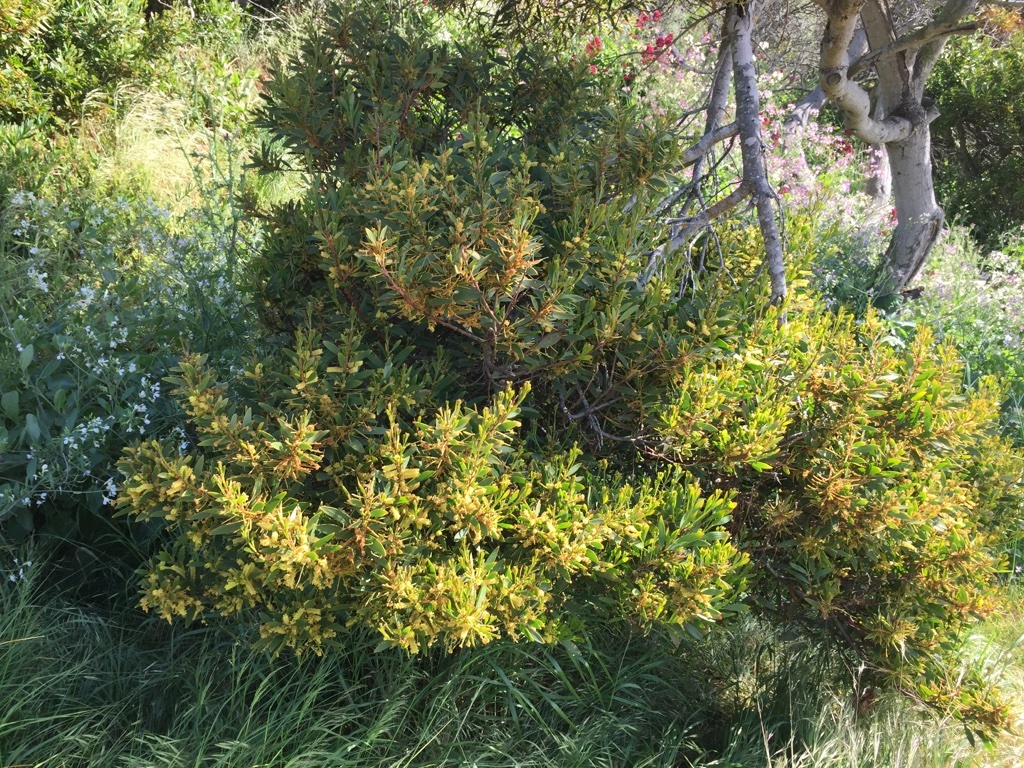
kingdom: Plantae
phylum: Tracheophyta
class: Magnoliopsida
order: Fabales
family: Fabaceae
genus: Acacia
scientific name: Acacia longifolia
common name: Sydney golden wattle
